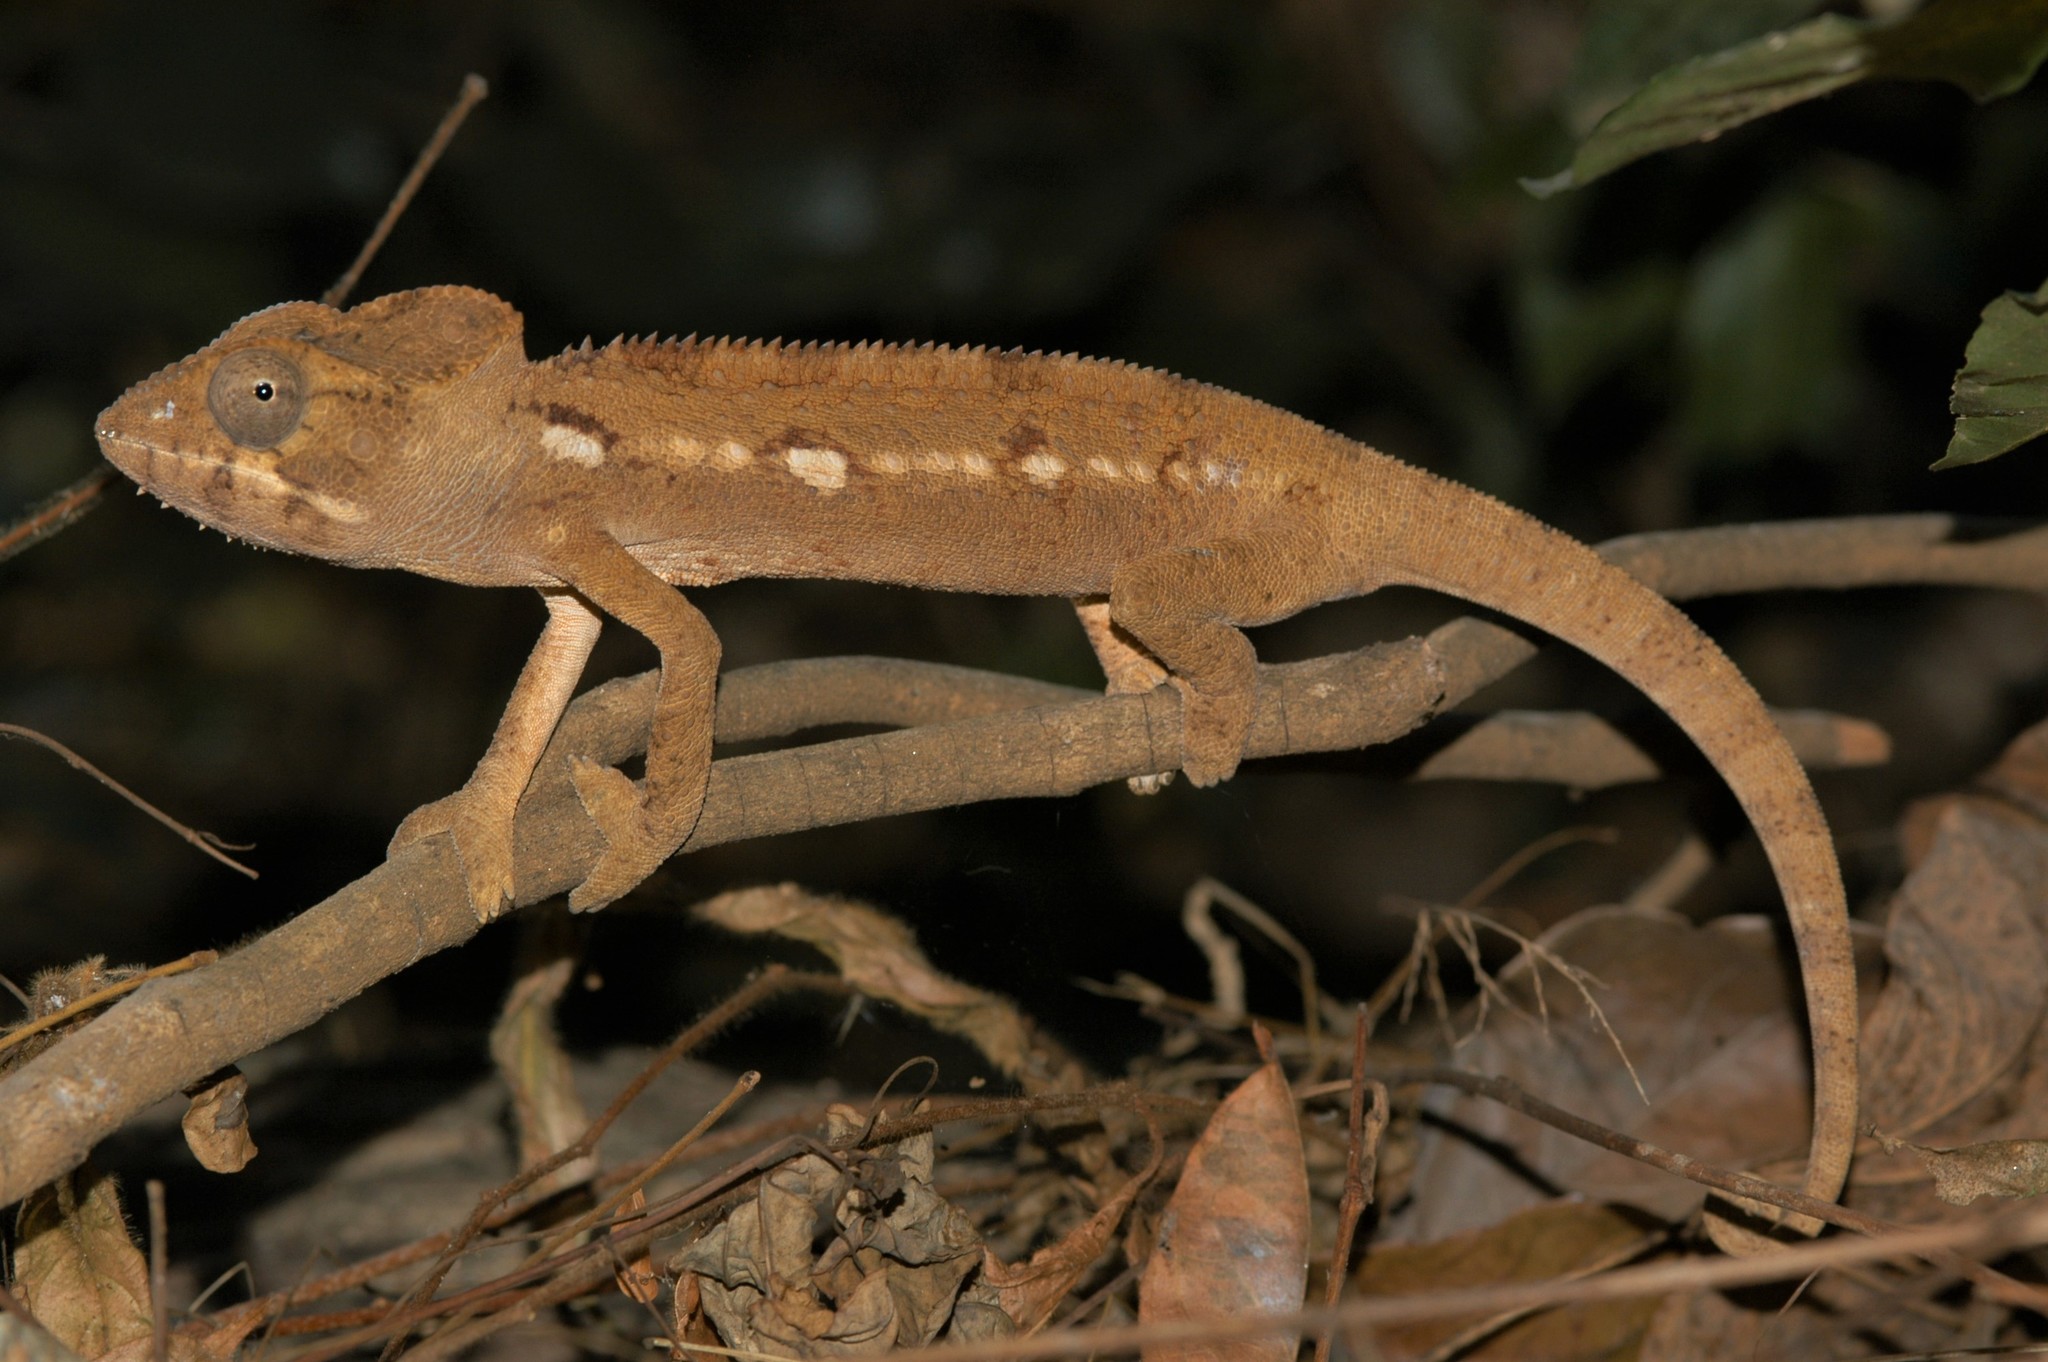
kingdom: Animalia
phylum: Chordata
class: Squamata
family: Chamaeleonidae
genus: Furcifer
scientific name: Furcifer oustaleti
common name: Oustalet's chameleon
